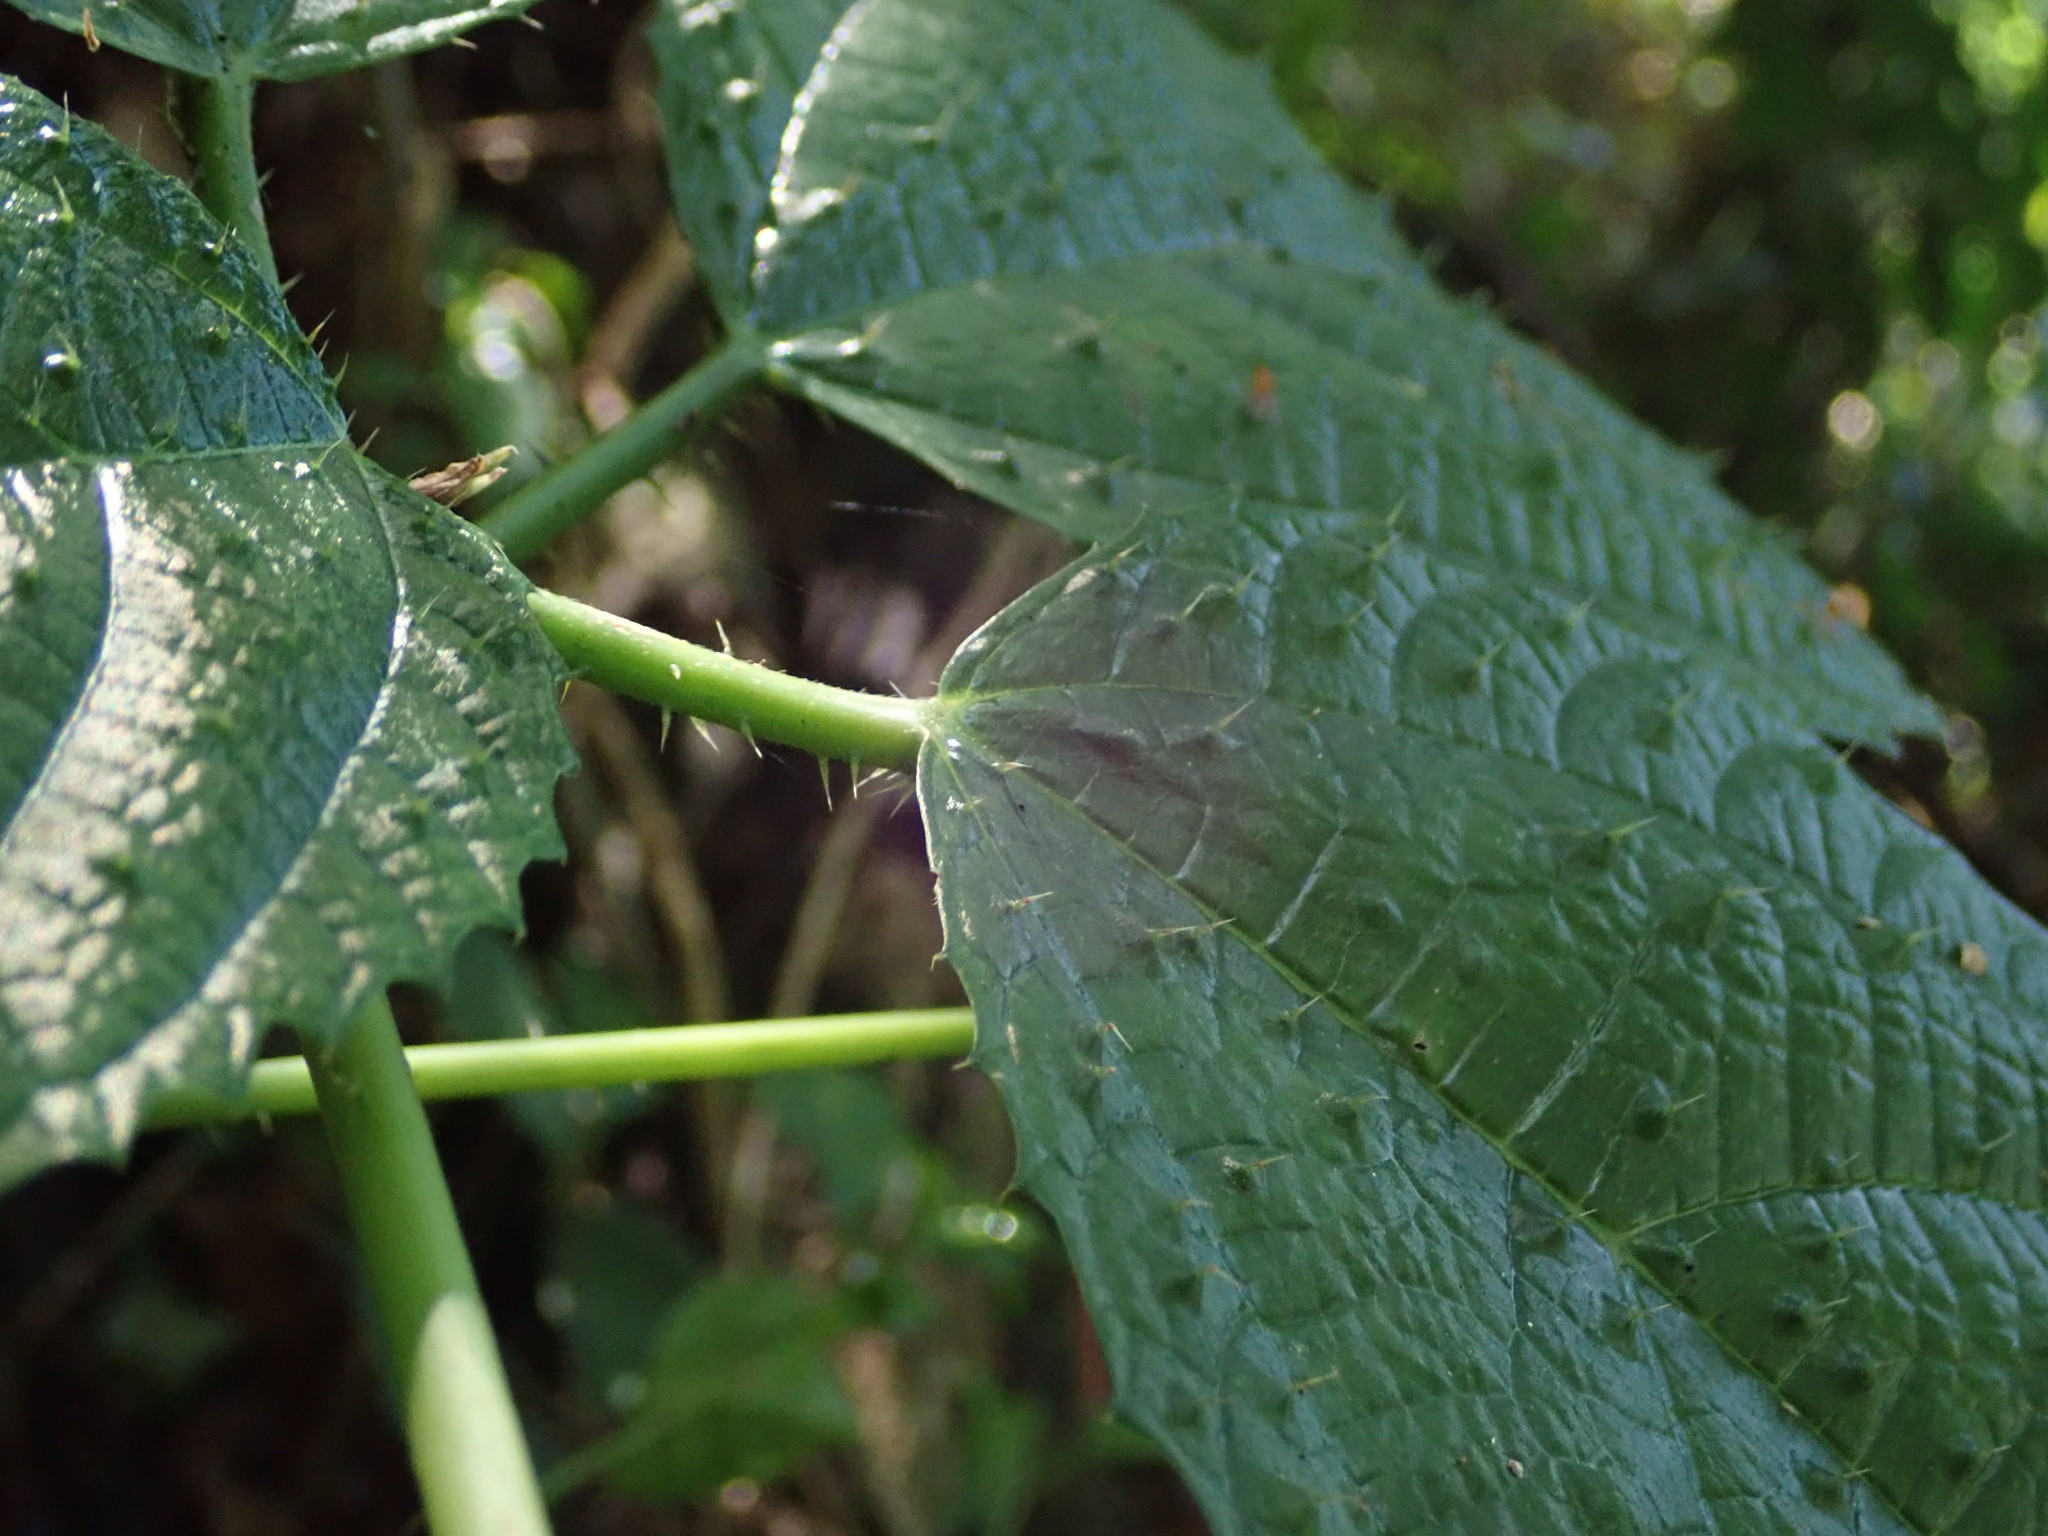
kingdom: Plantae
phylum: Tracheophyta
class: Magnoliopsida
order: Rosales
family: Urticaceae
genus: Urera
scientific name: Urera baccifera
